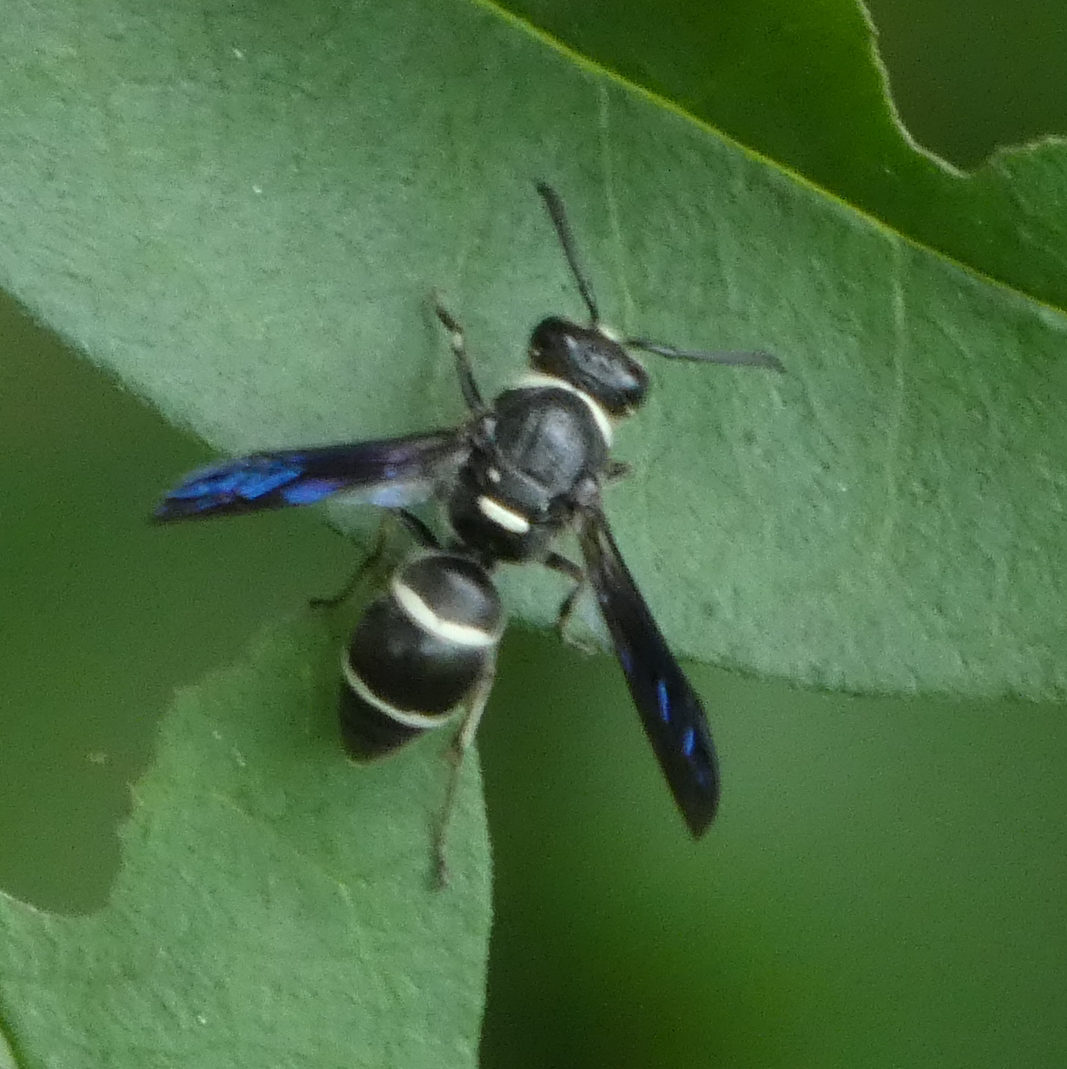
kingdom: Animalia
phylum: Arthropoda
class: Insecta
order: Hymenoptera
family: Eumenidae
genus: Euodynerus
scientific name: Euodynerus megaera
